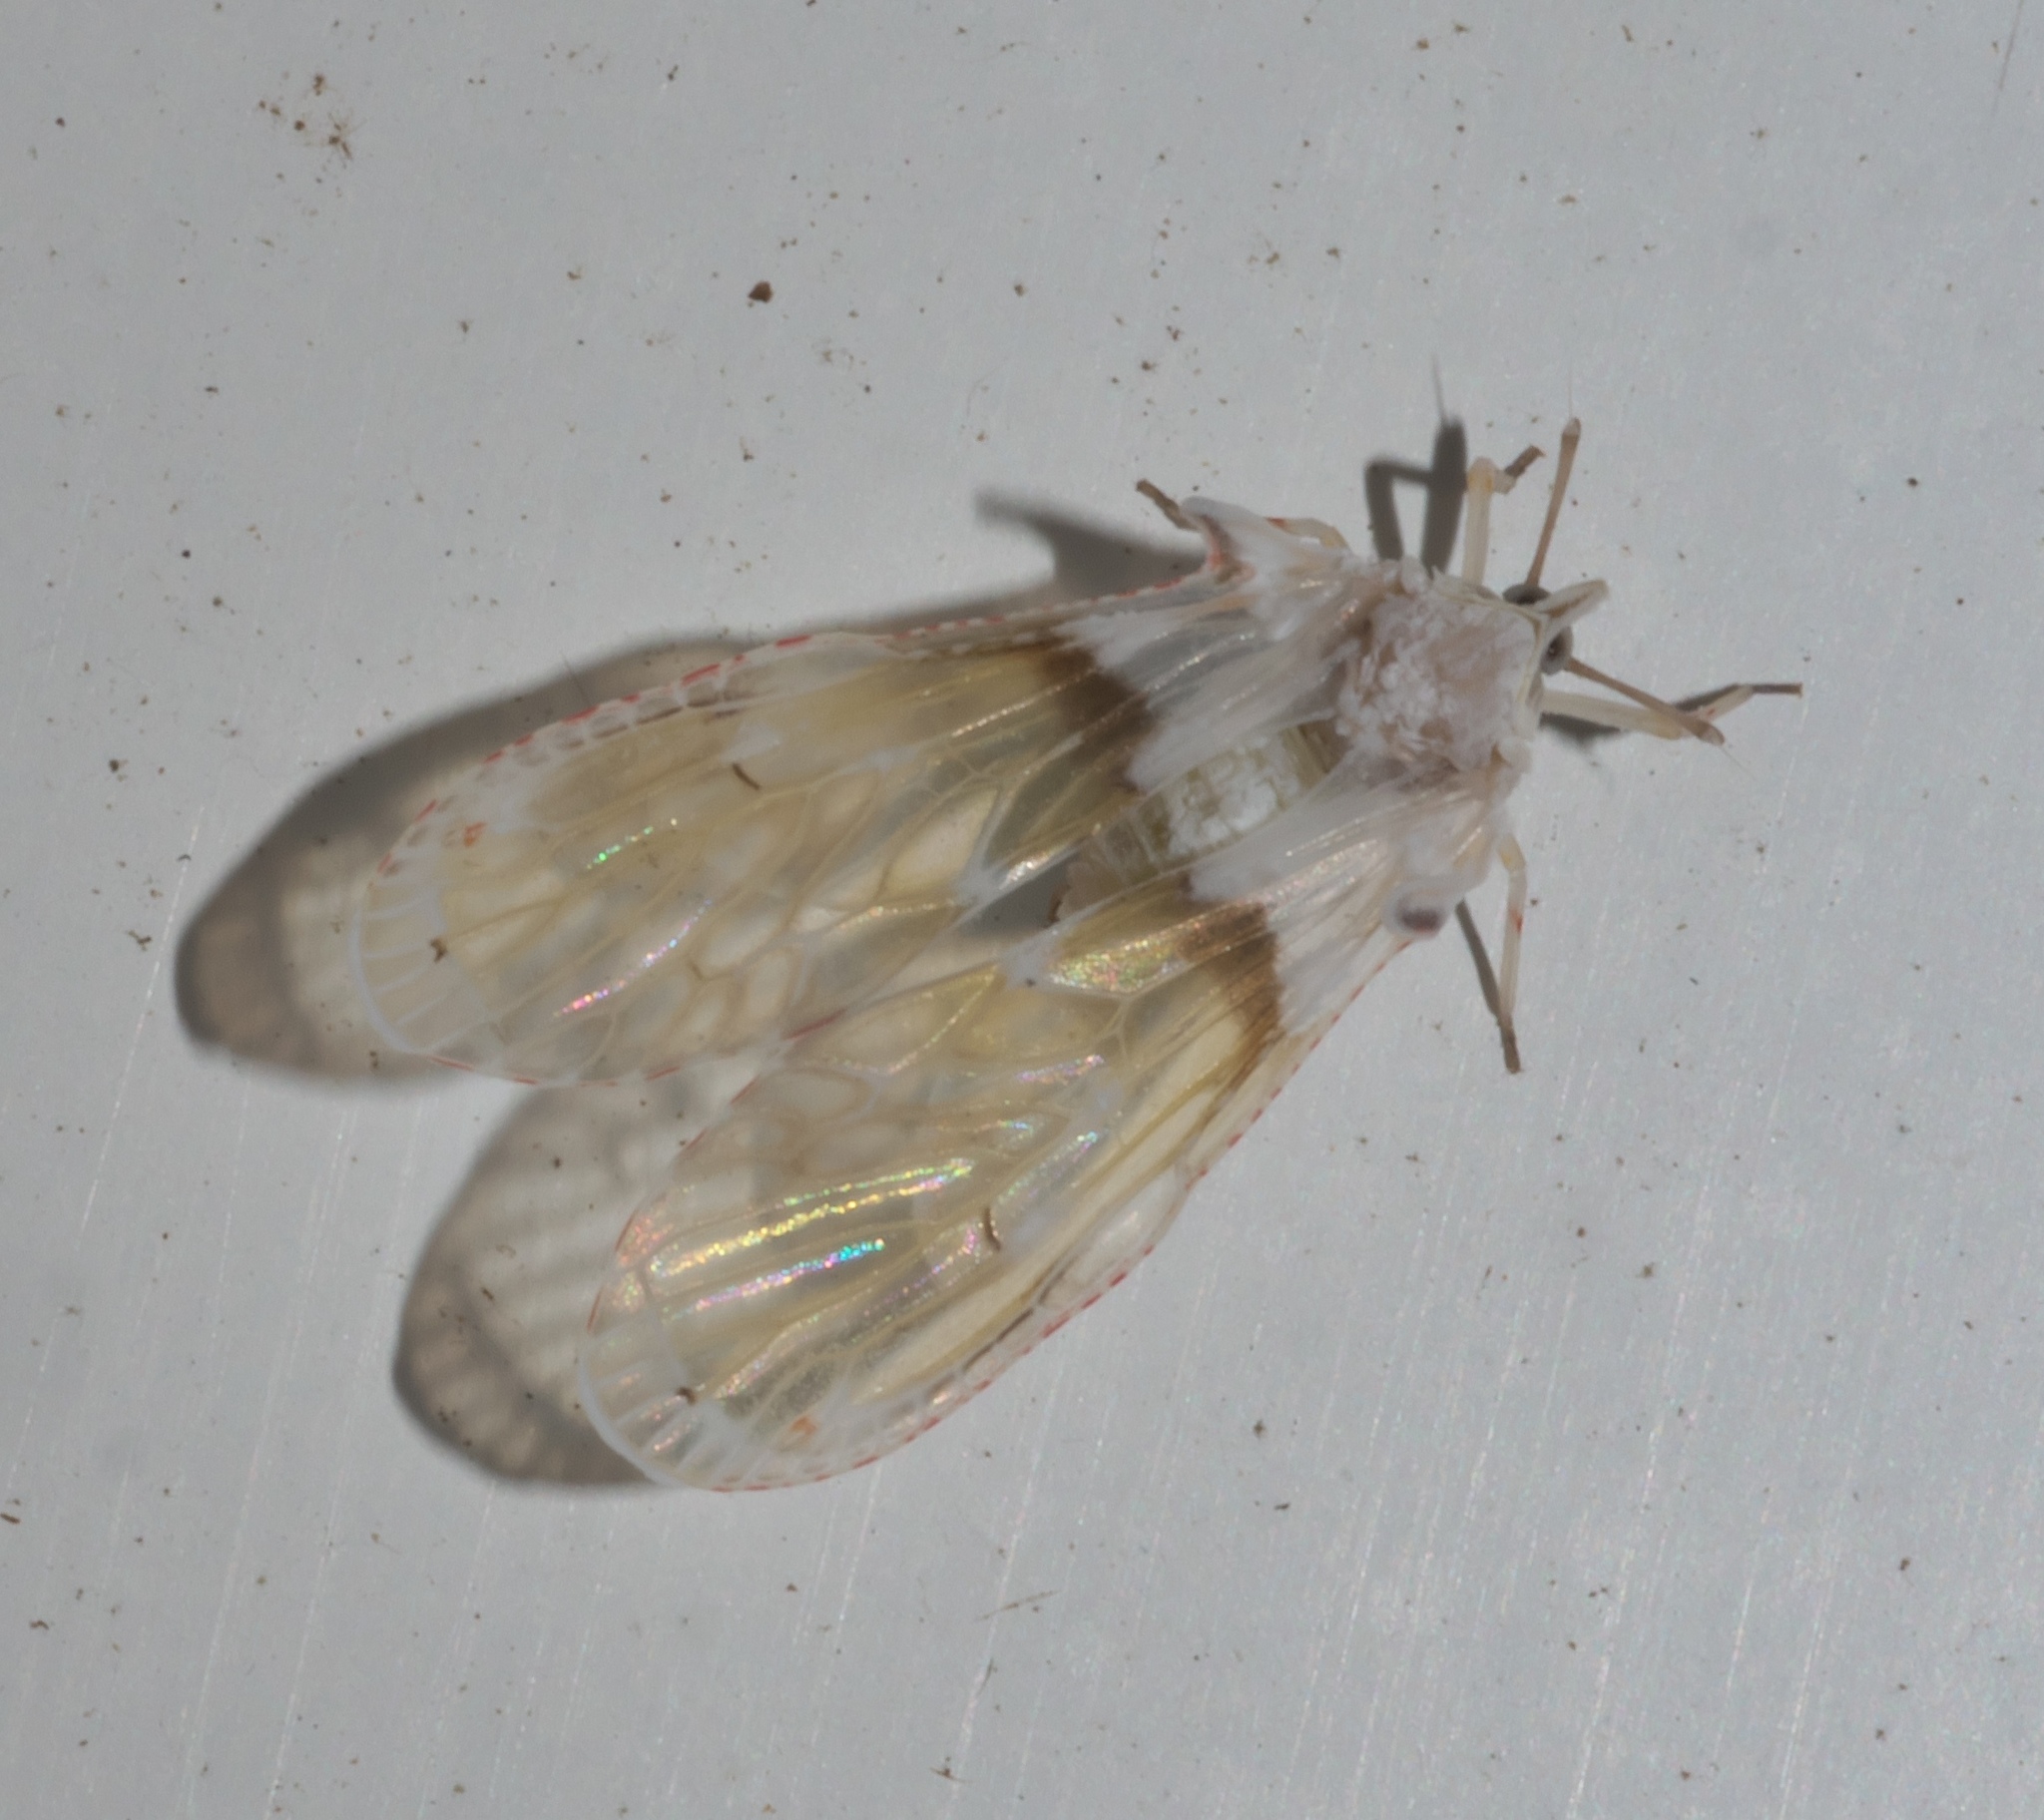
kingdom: Animalia
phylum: Arthropoda
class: Insecta
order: Hemiptera
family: Derbidae
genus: Sayiana
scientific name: Sayiana sayi
